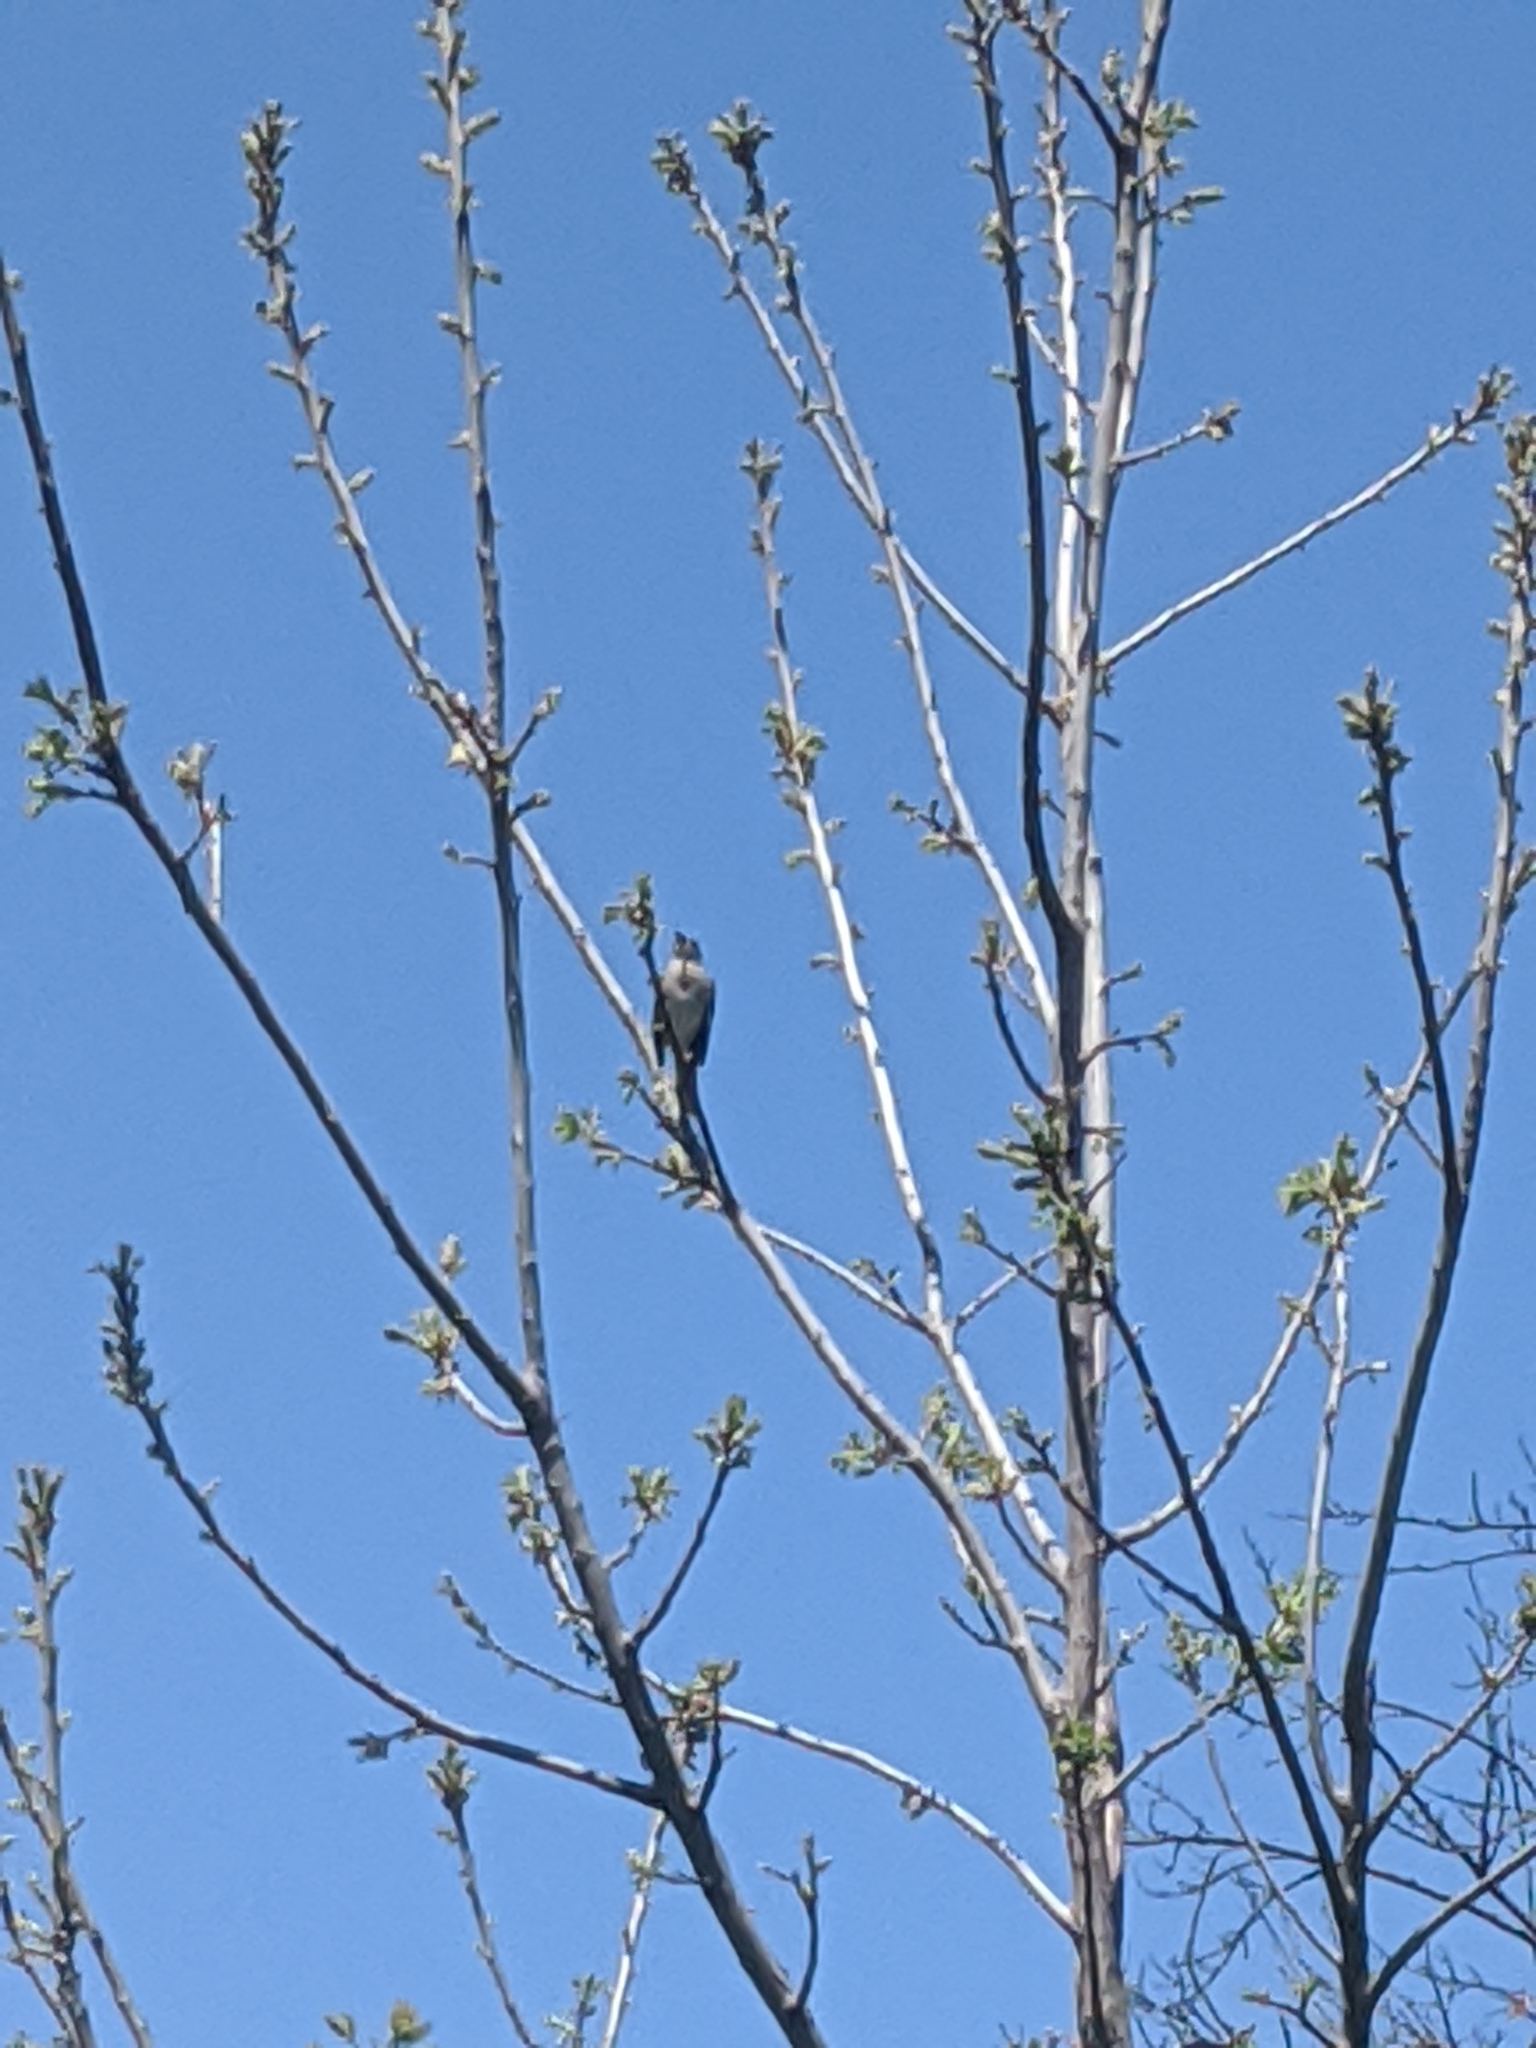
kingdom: Animalia
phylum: Chordata
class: Aves
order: Passeriformes
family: Mimidae
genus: Mimus
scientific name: Mimus polyglottos
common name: Northern mockingbird
